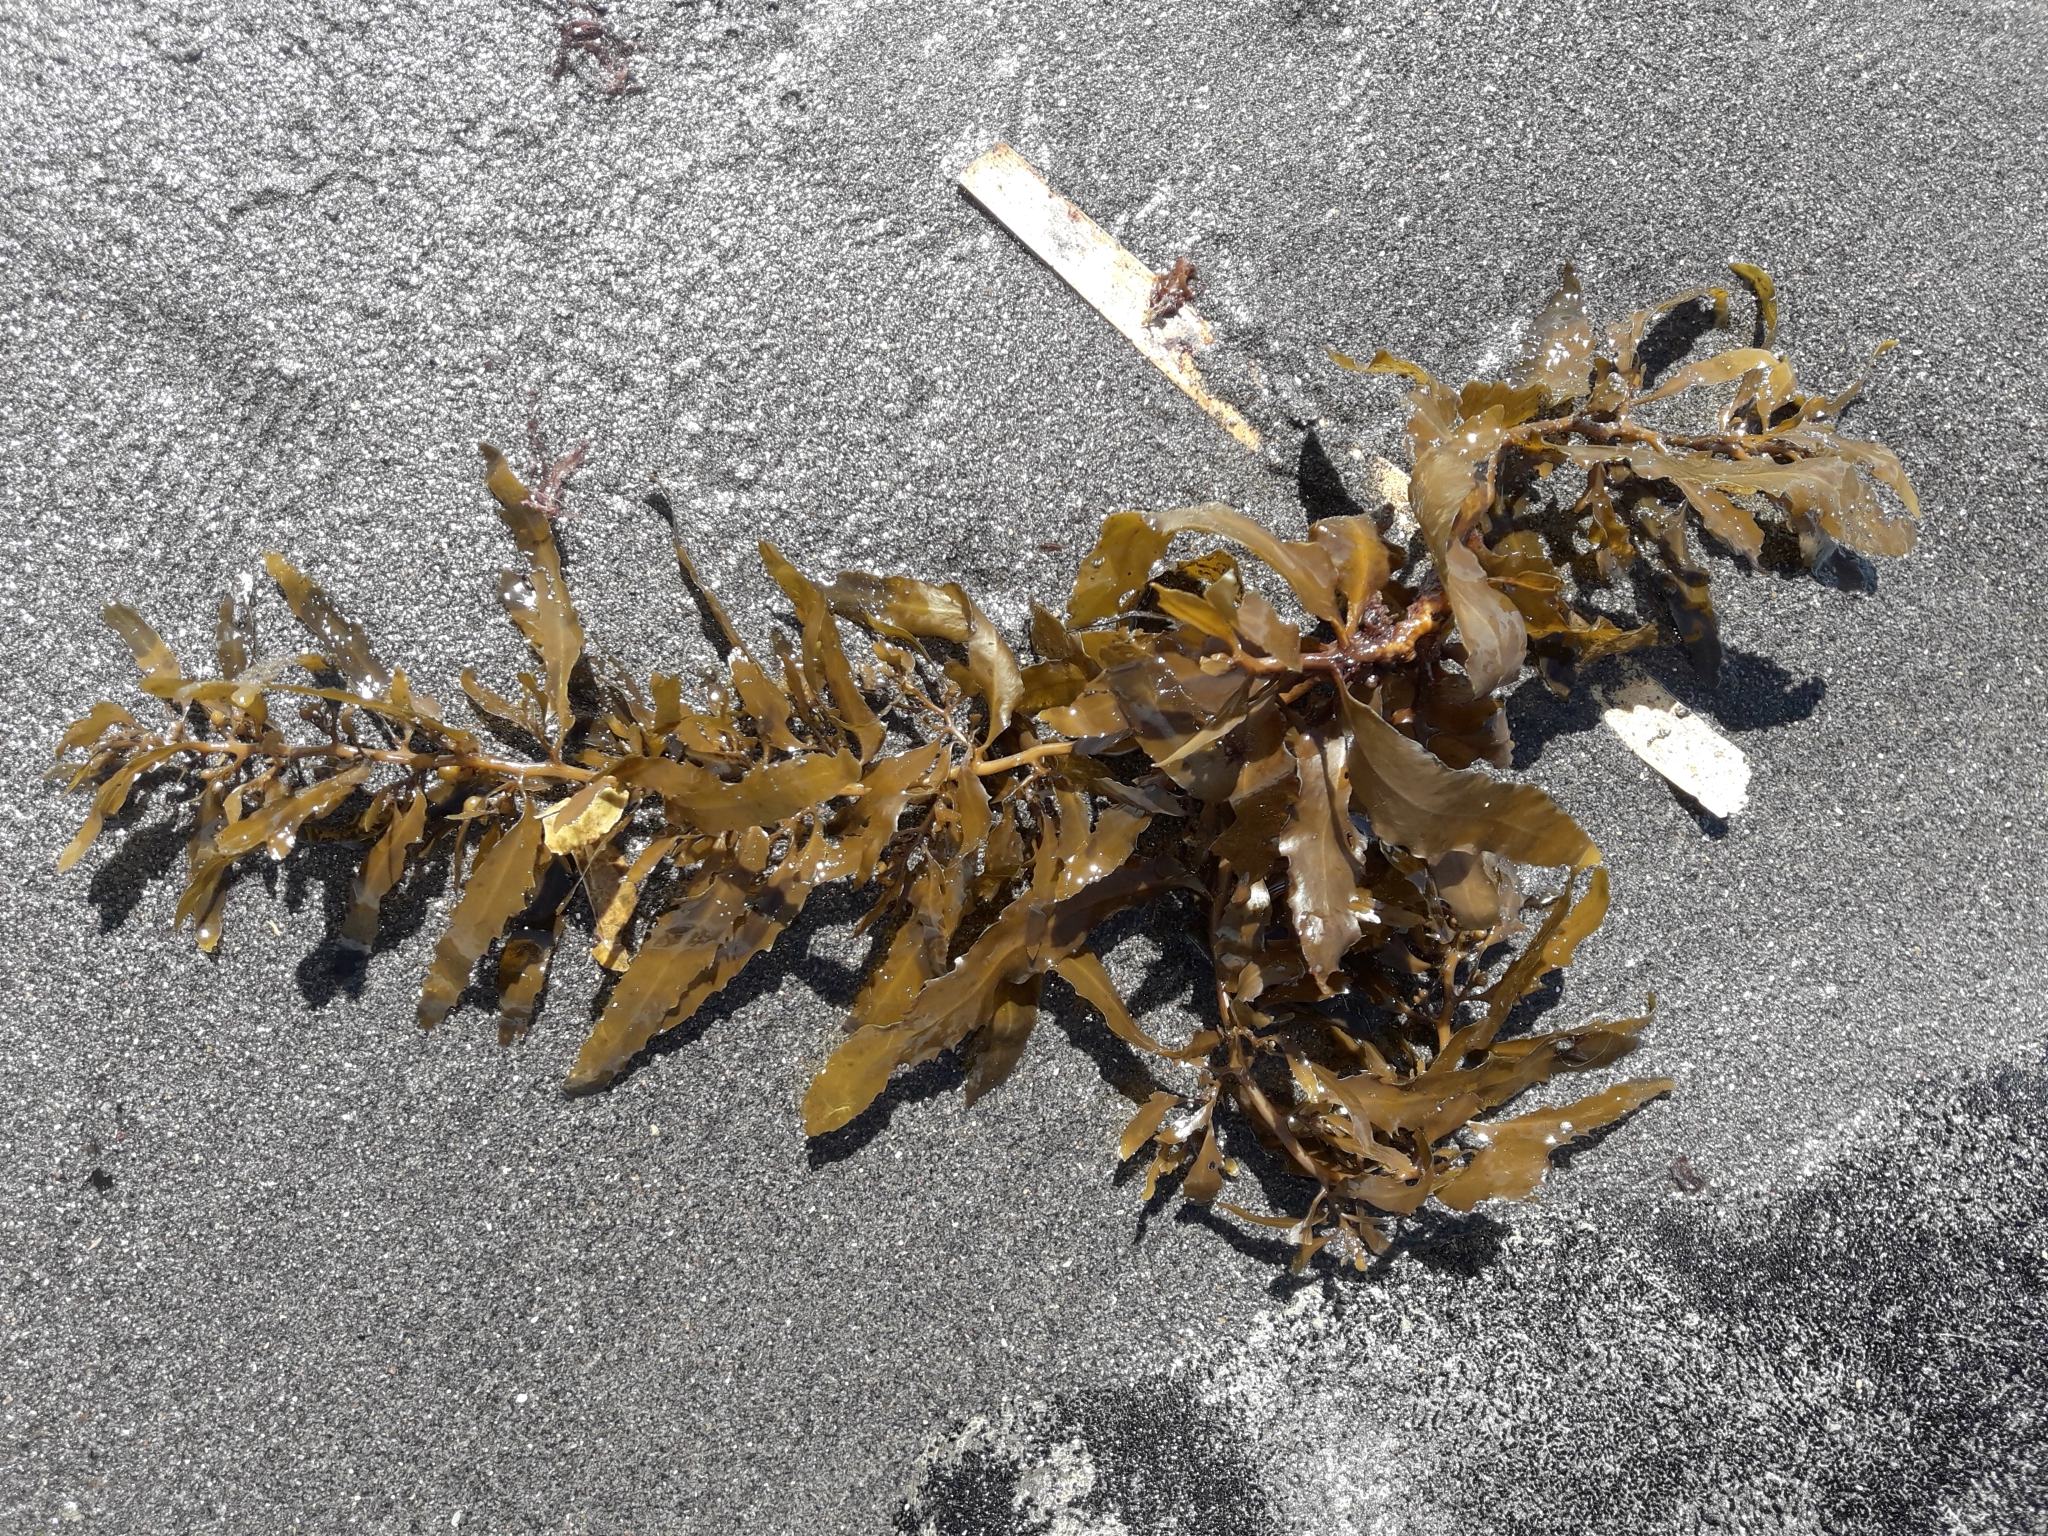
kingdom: Chromista
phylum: Ochrophyta
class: Phaeophyceae
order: Fucales
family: Sargassaceae
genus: Sargassum
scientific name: Sargassum sinclairii
